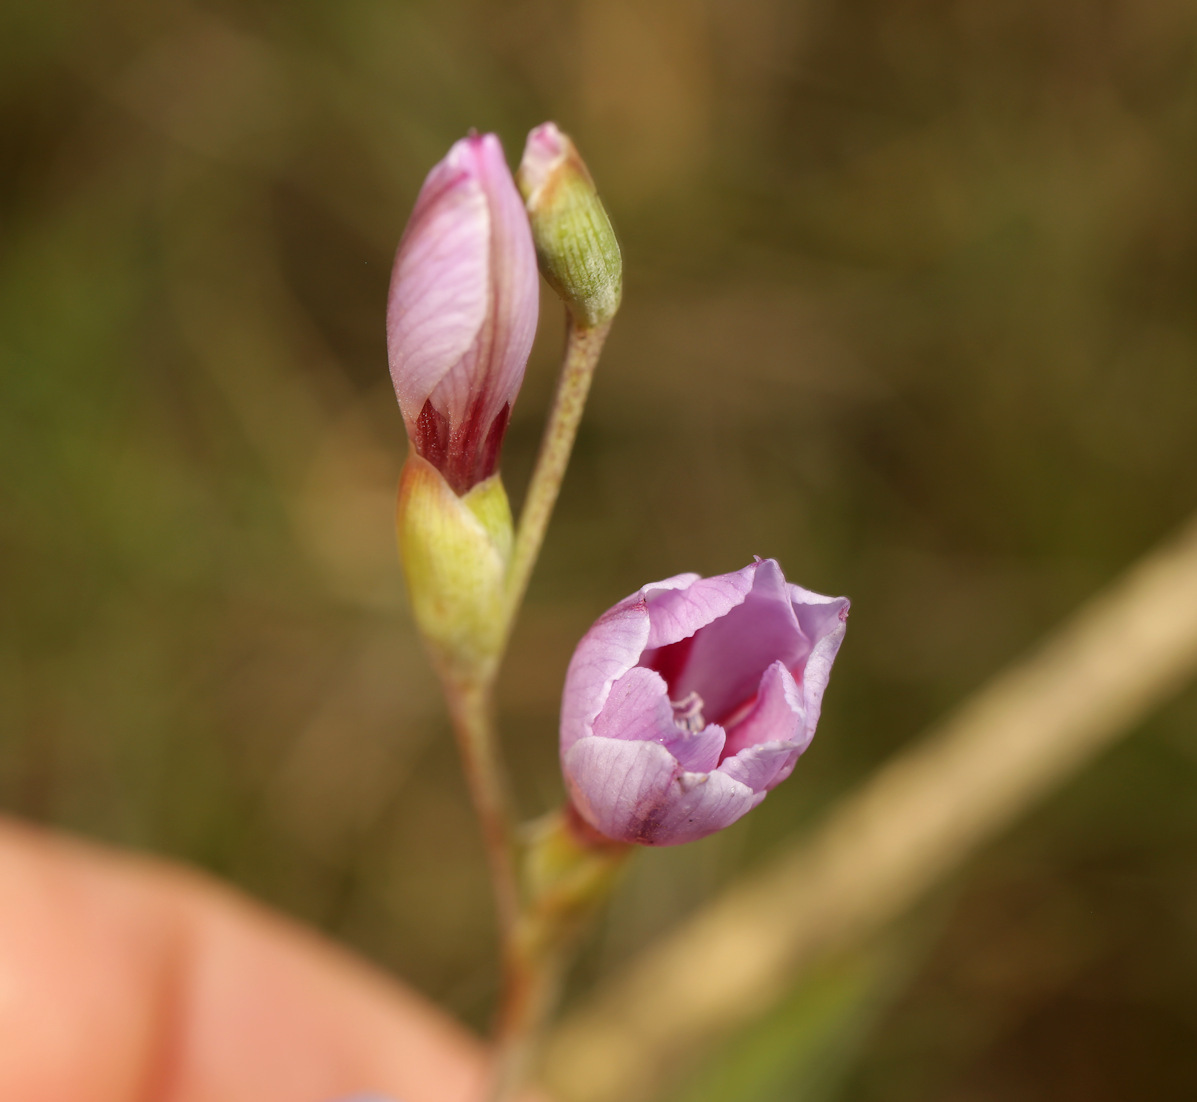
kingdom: Plantae
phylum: Tracheophyta
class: Liliopsida
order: Asparagales
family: Iridaceae
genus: Gladiolus
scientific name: Gladiolus gueinzii
